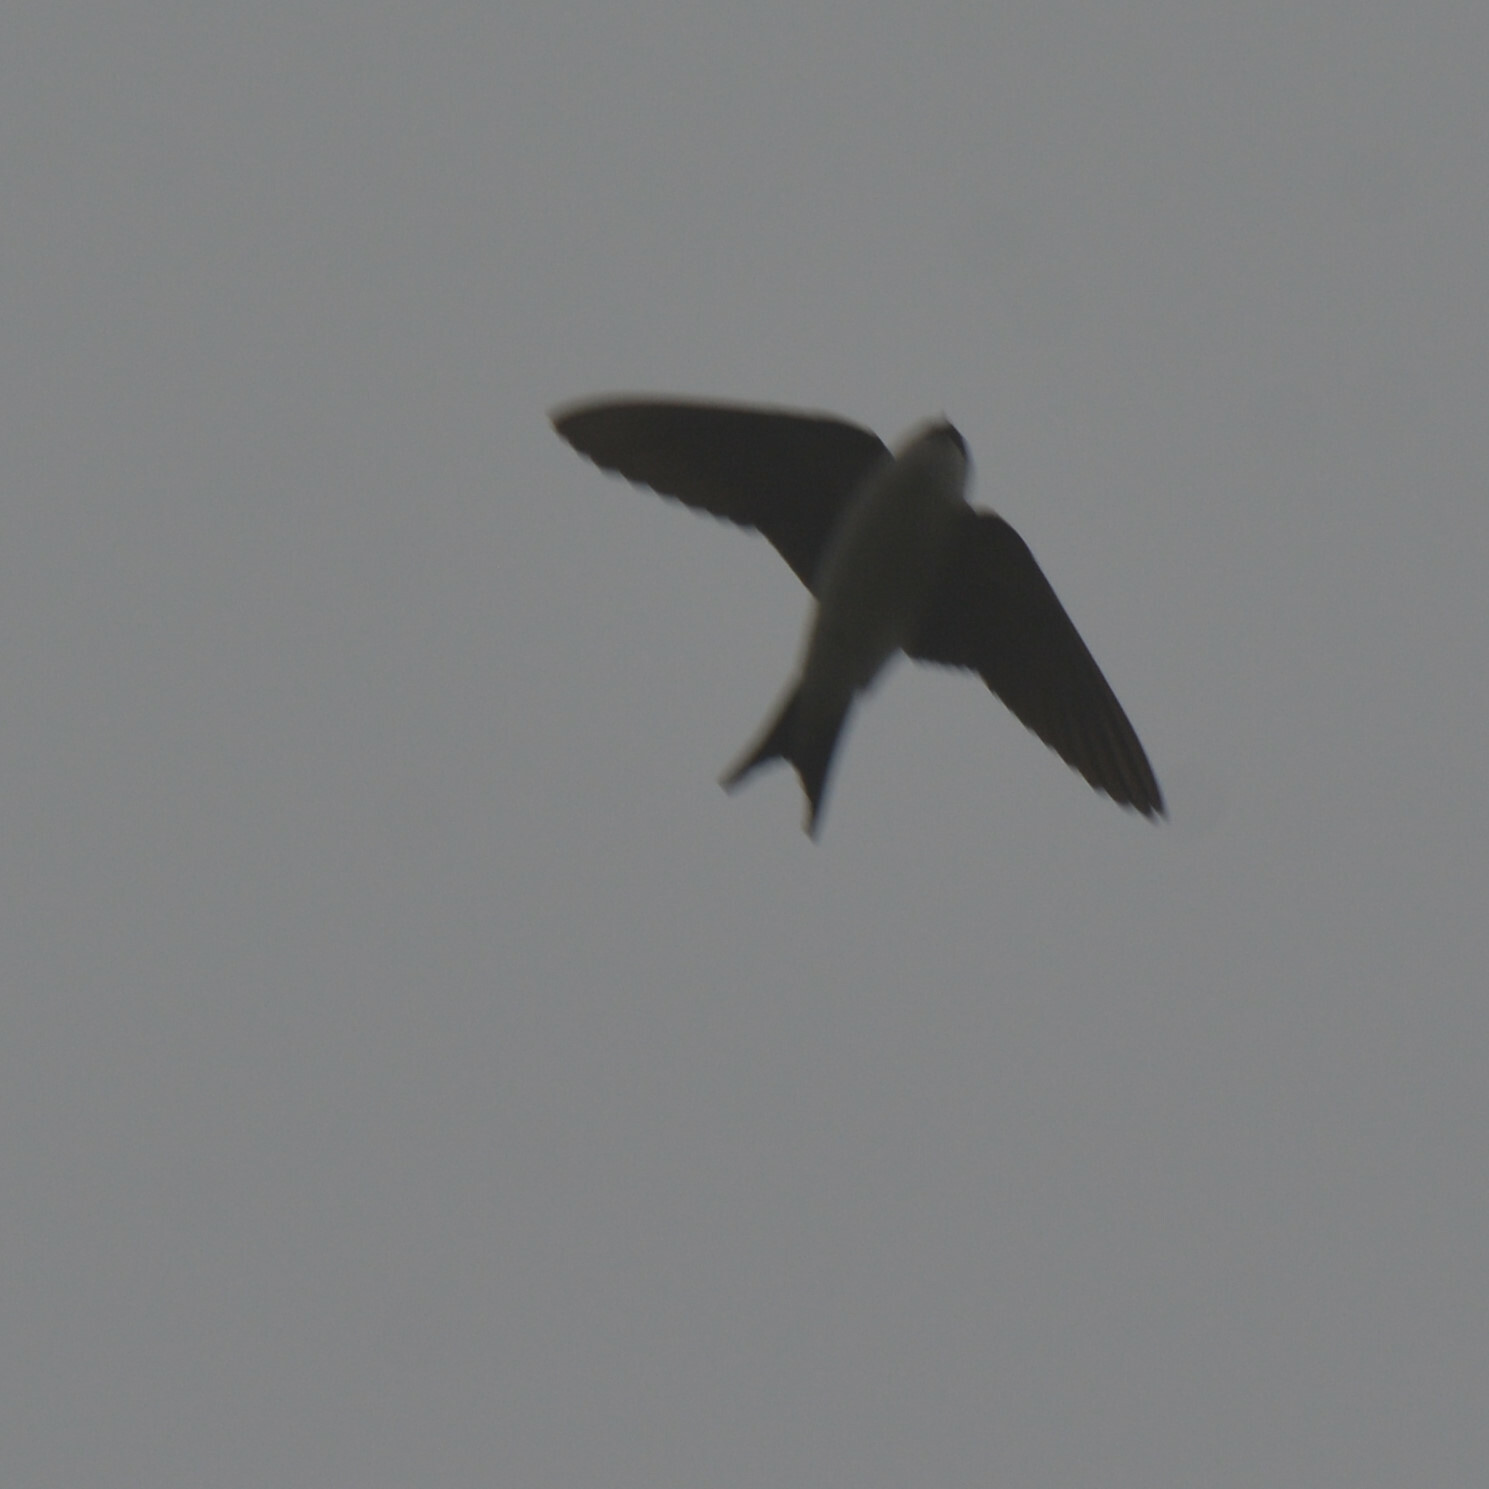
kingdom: Animalia
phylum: Chordata
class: Aves
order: Passeriformes
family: Hirundinidae
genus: Delichon
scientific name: Delichon urbicum
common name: Common house martin
